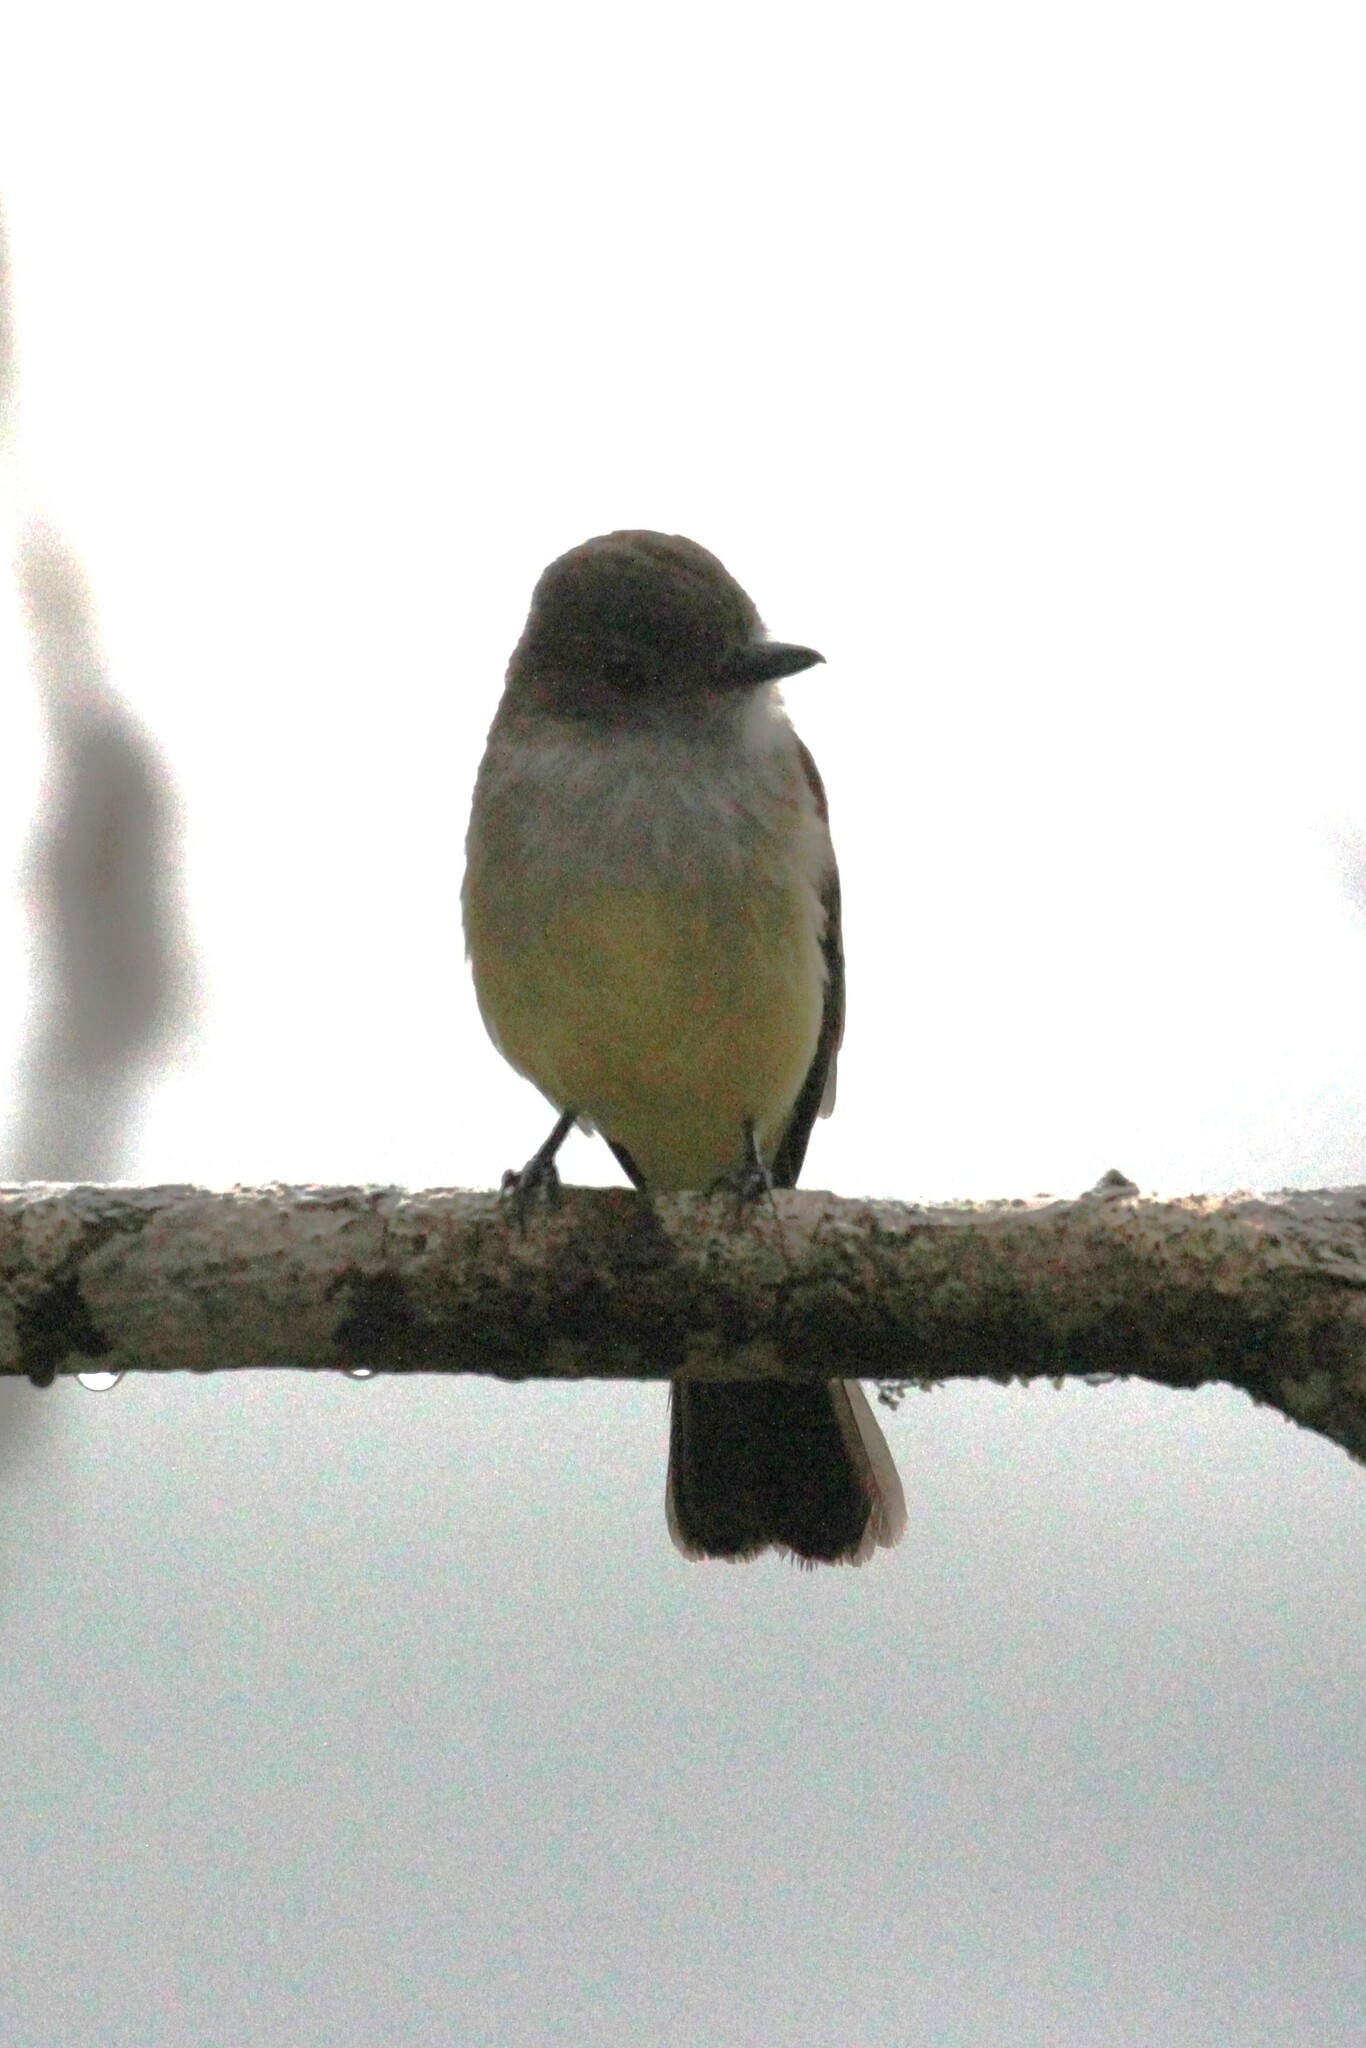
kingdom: Animalia
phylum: Chordata
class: Aves
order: Passeriformes
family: Tyrannidae
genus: Myiarchus
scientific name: Myiarchus cephalotes
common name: Pale-edged flycatcher
